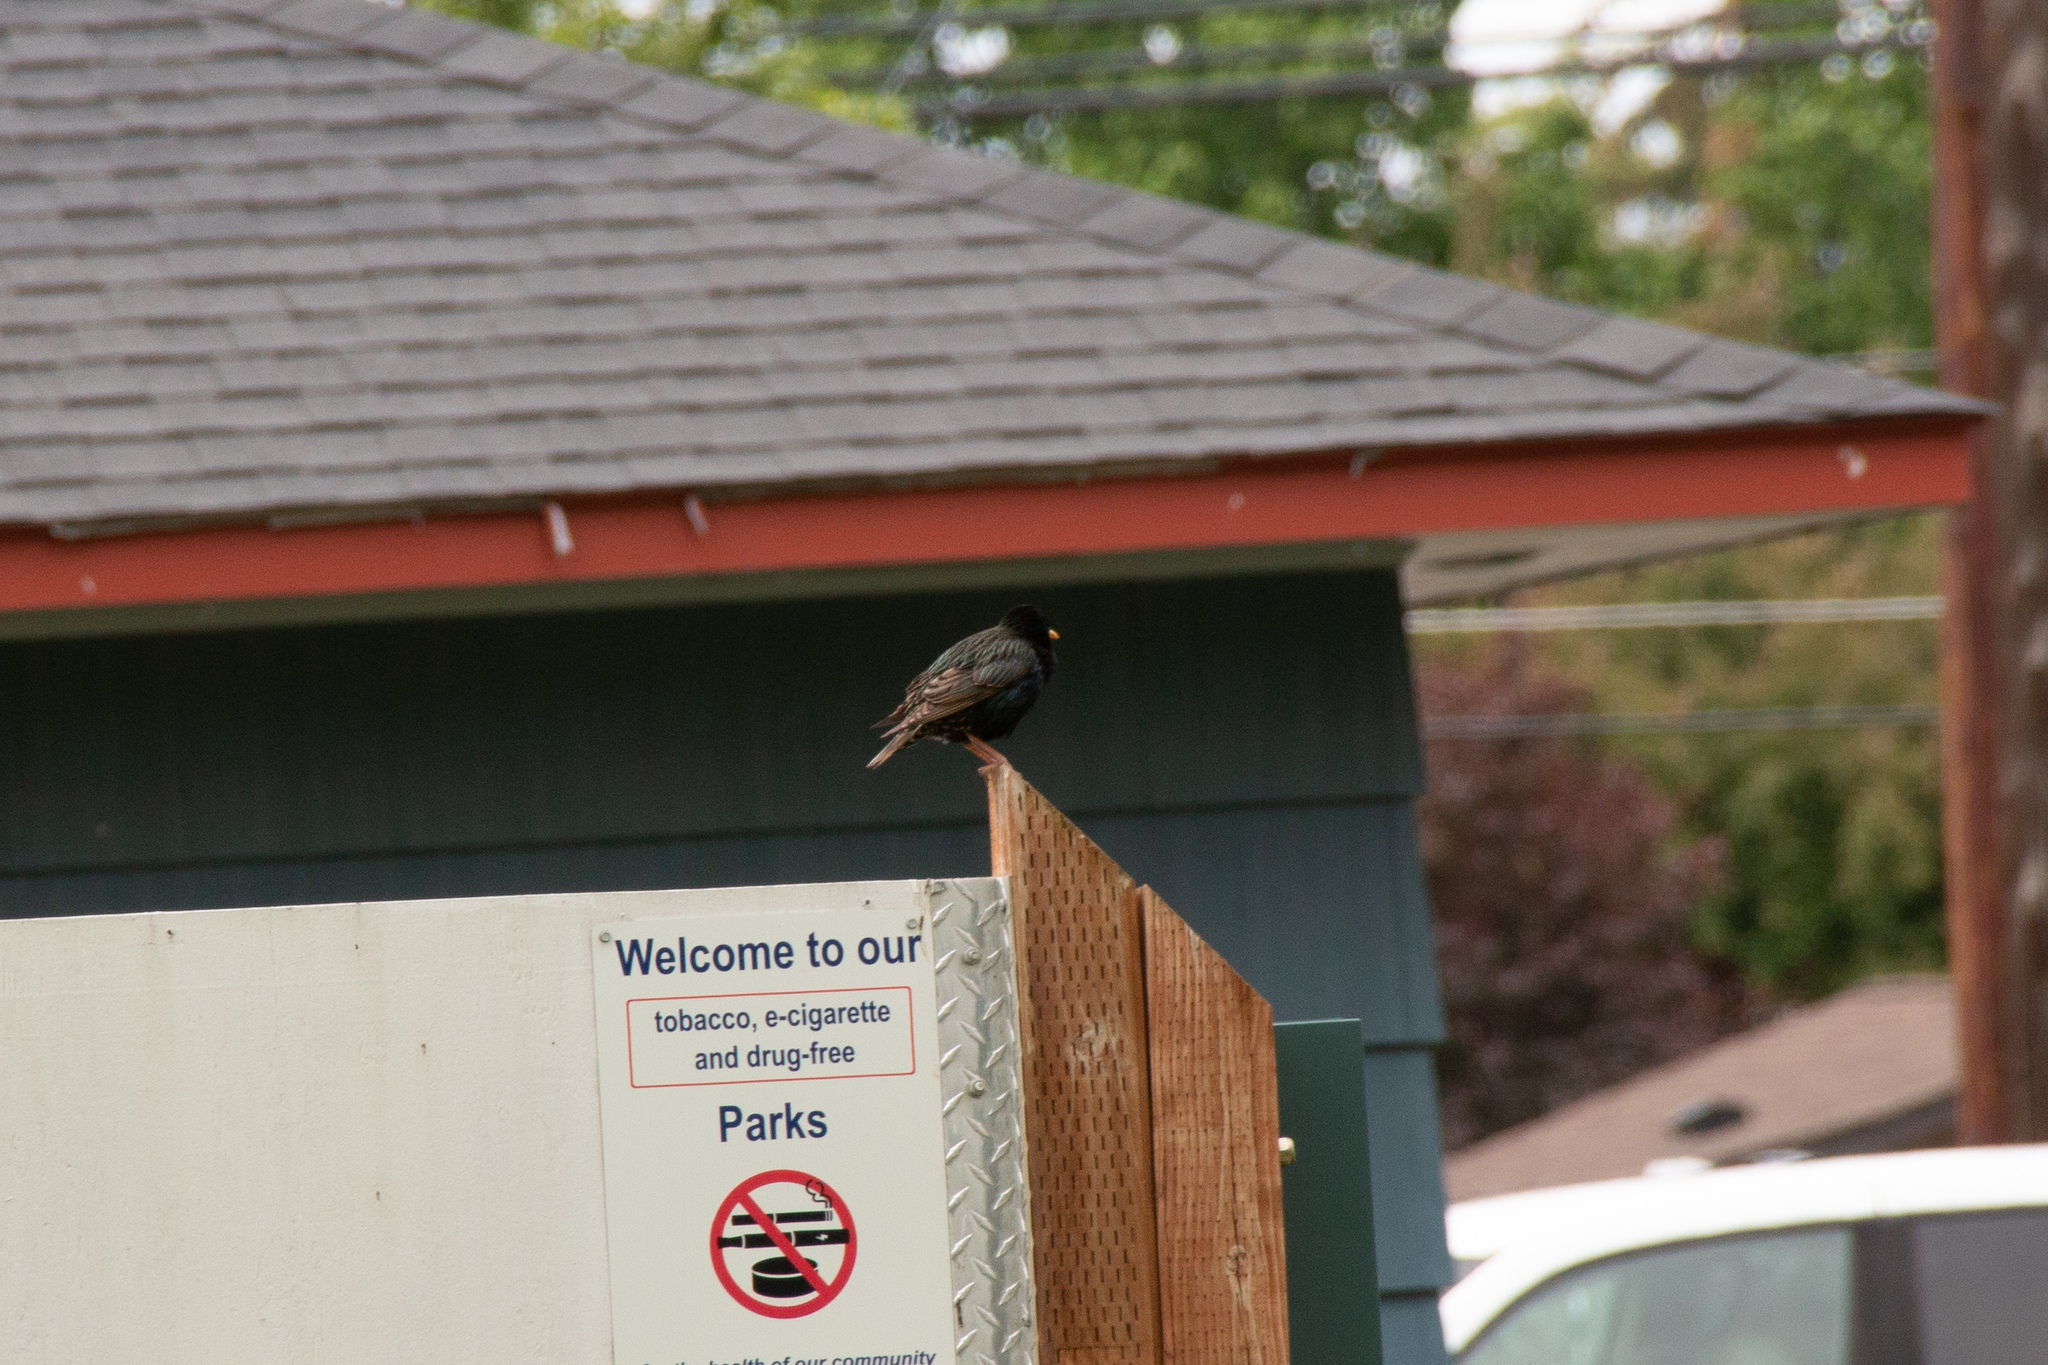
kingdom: Animalia
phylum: Chordata
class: Aves
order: Passeriformes
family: Sturnidae
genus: Sturnus
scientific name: Sturnus vulgaris
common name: Common starling
